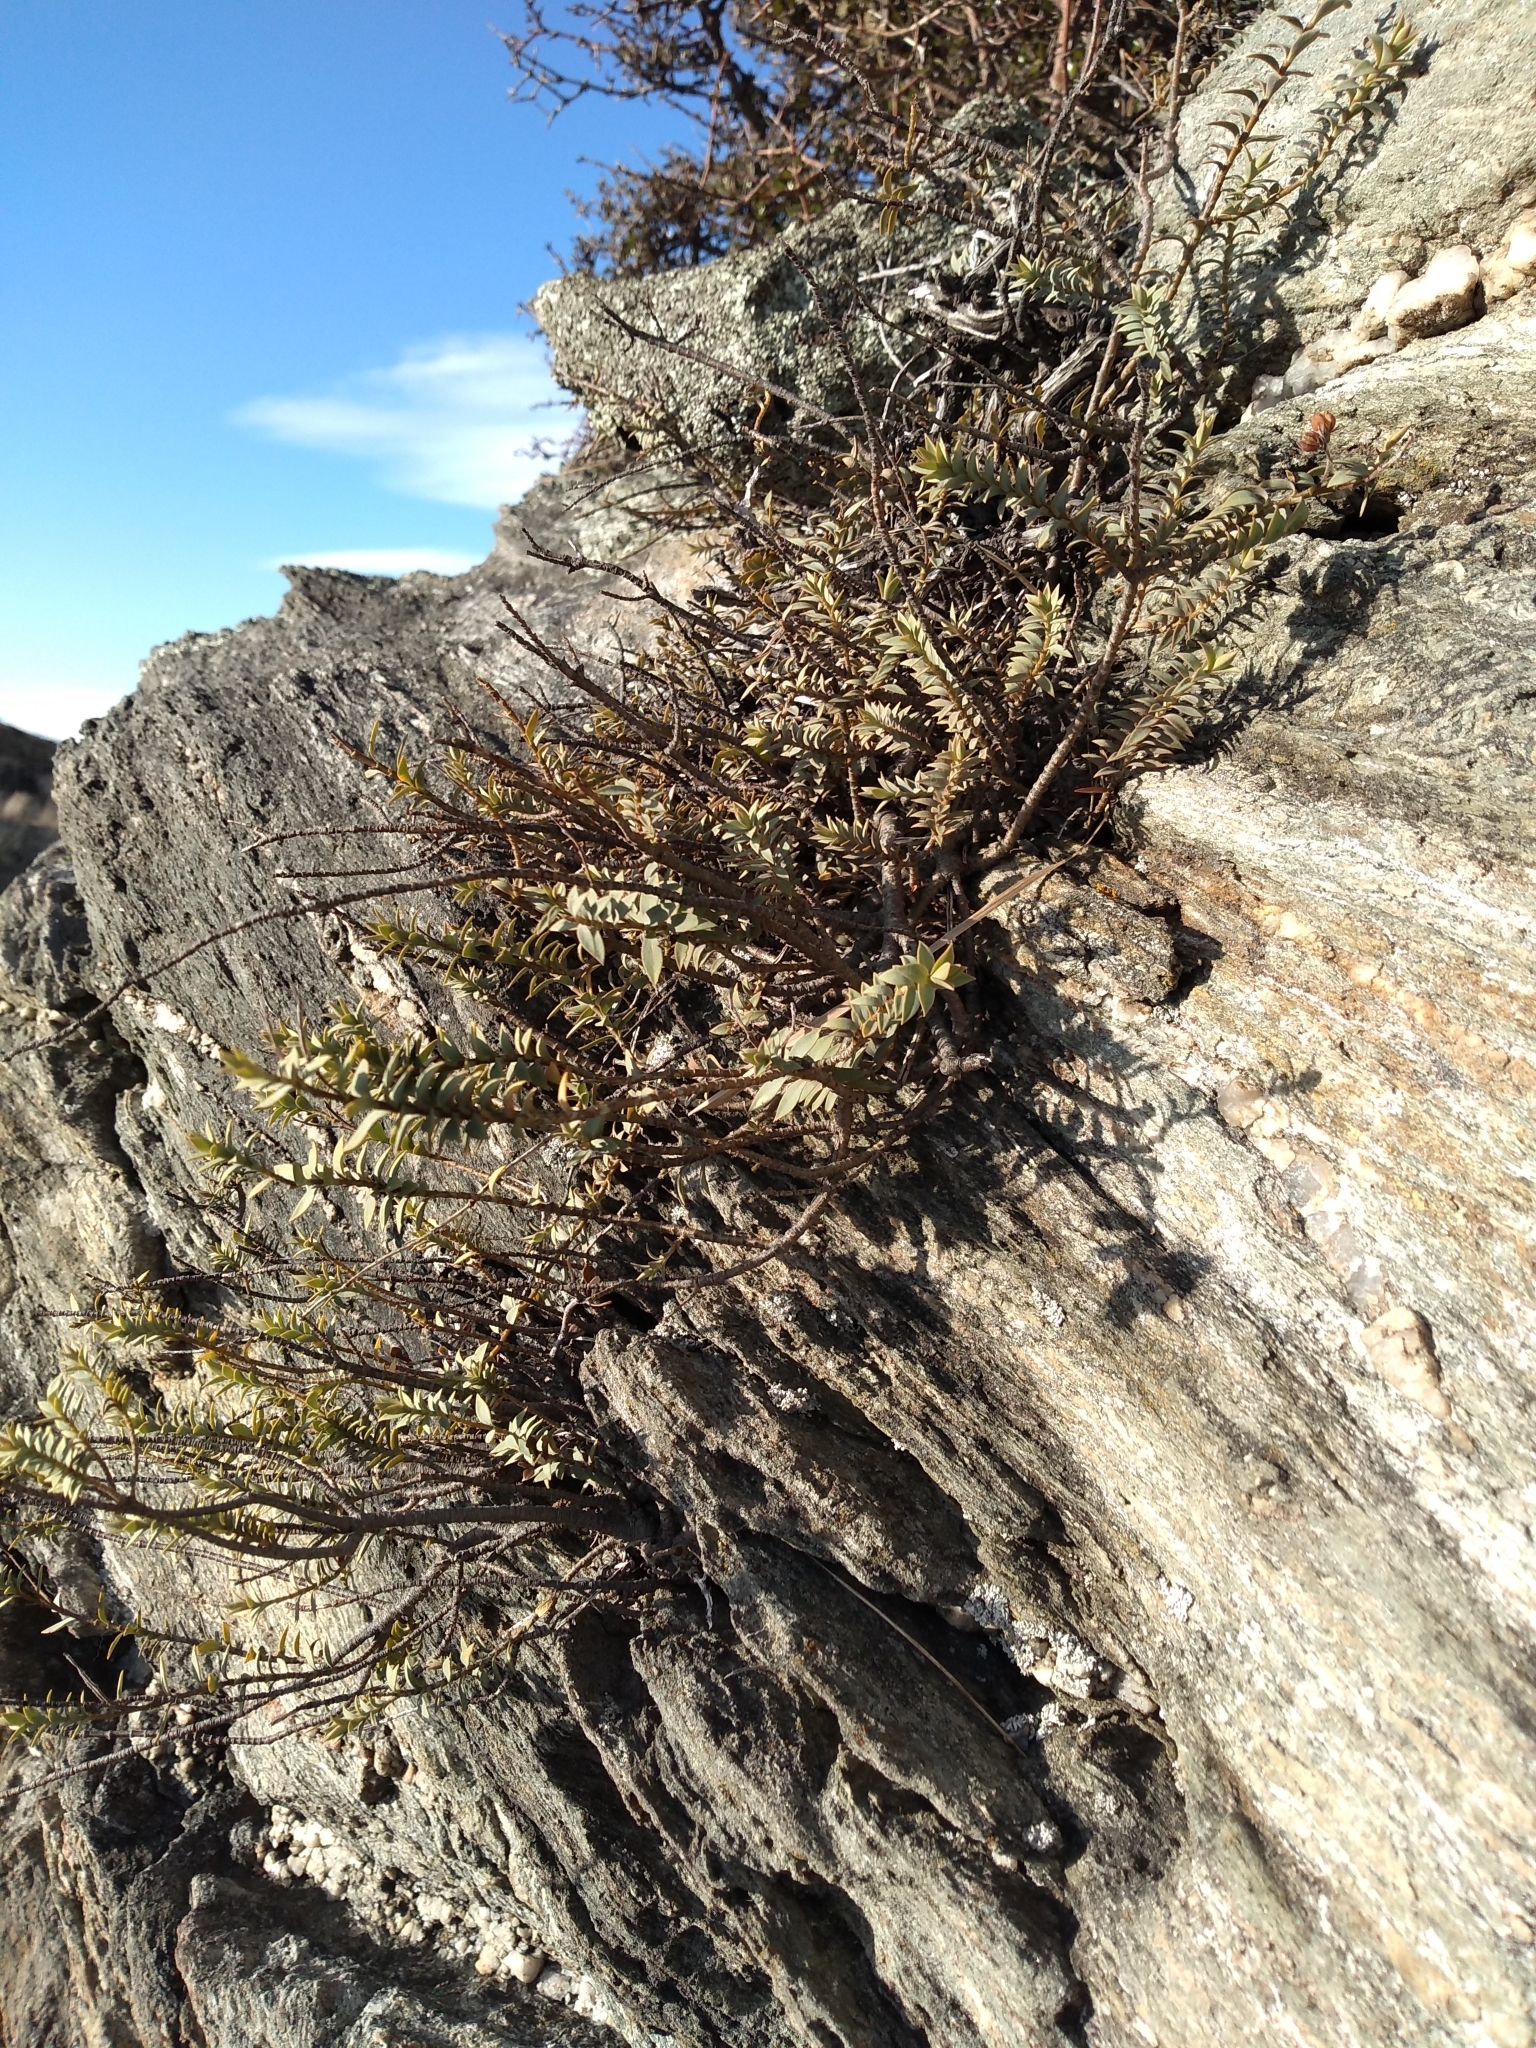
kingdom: Plantae
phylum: Tracheophyta
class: Magnoliopsida
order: Lamiales
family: Plantaginaceae
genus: Veronica
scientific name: Veronica pimeleoides
